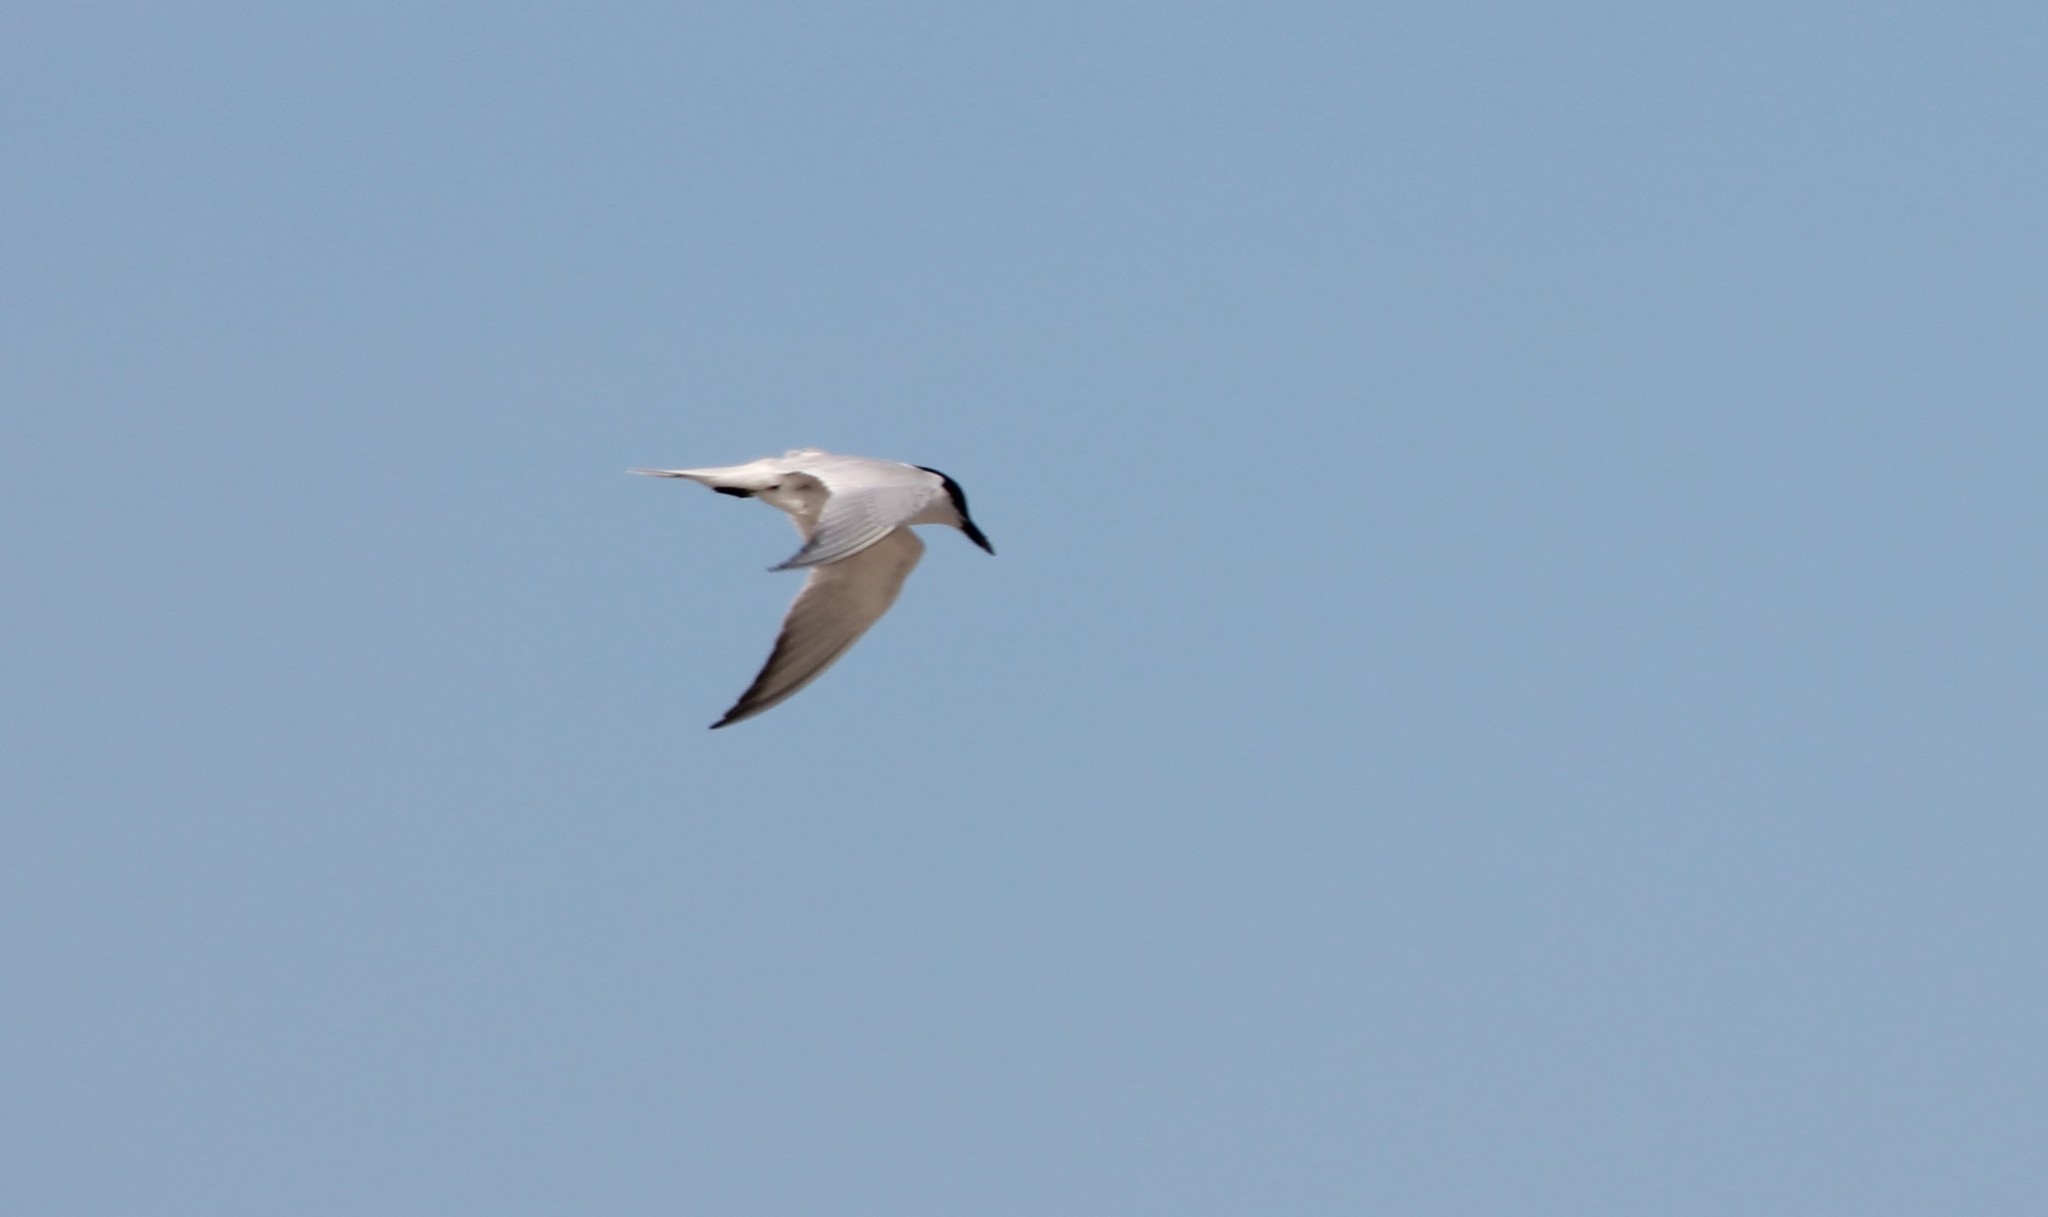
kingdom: Animalia
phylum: Chordata
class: Aves
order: Charadriiformes
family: Laridae
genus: Gelochelidon
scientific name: Gelochelidon nilotica
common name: Gull-billed tern
